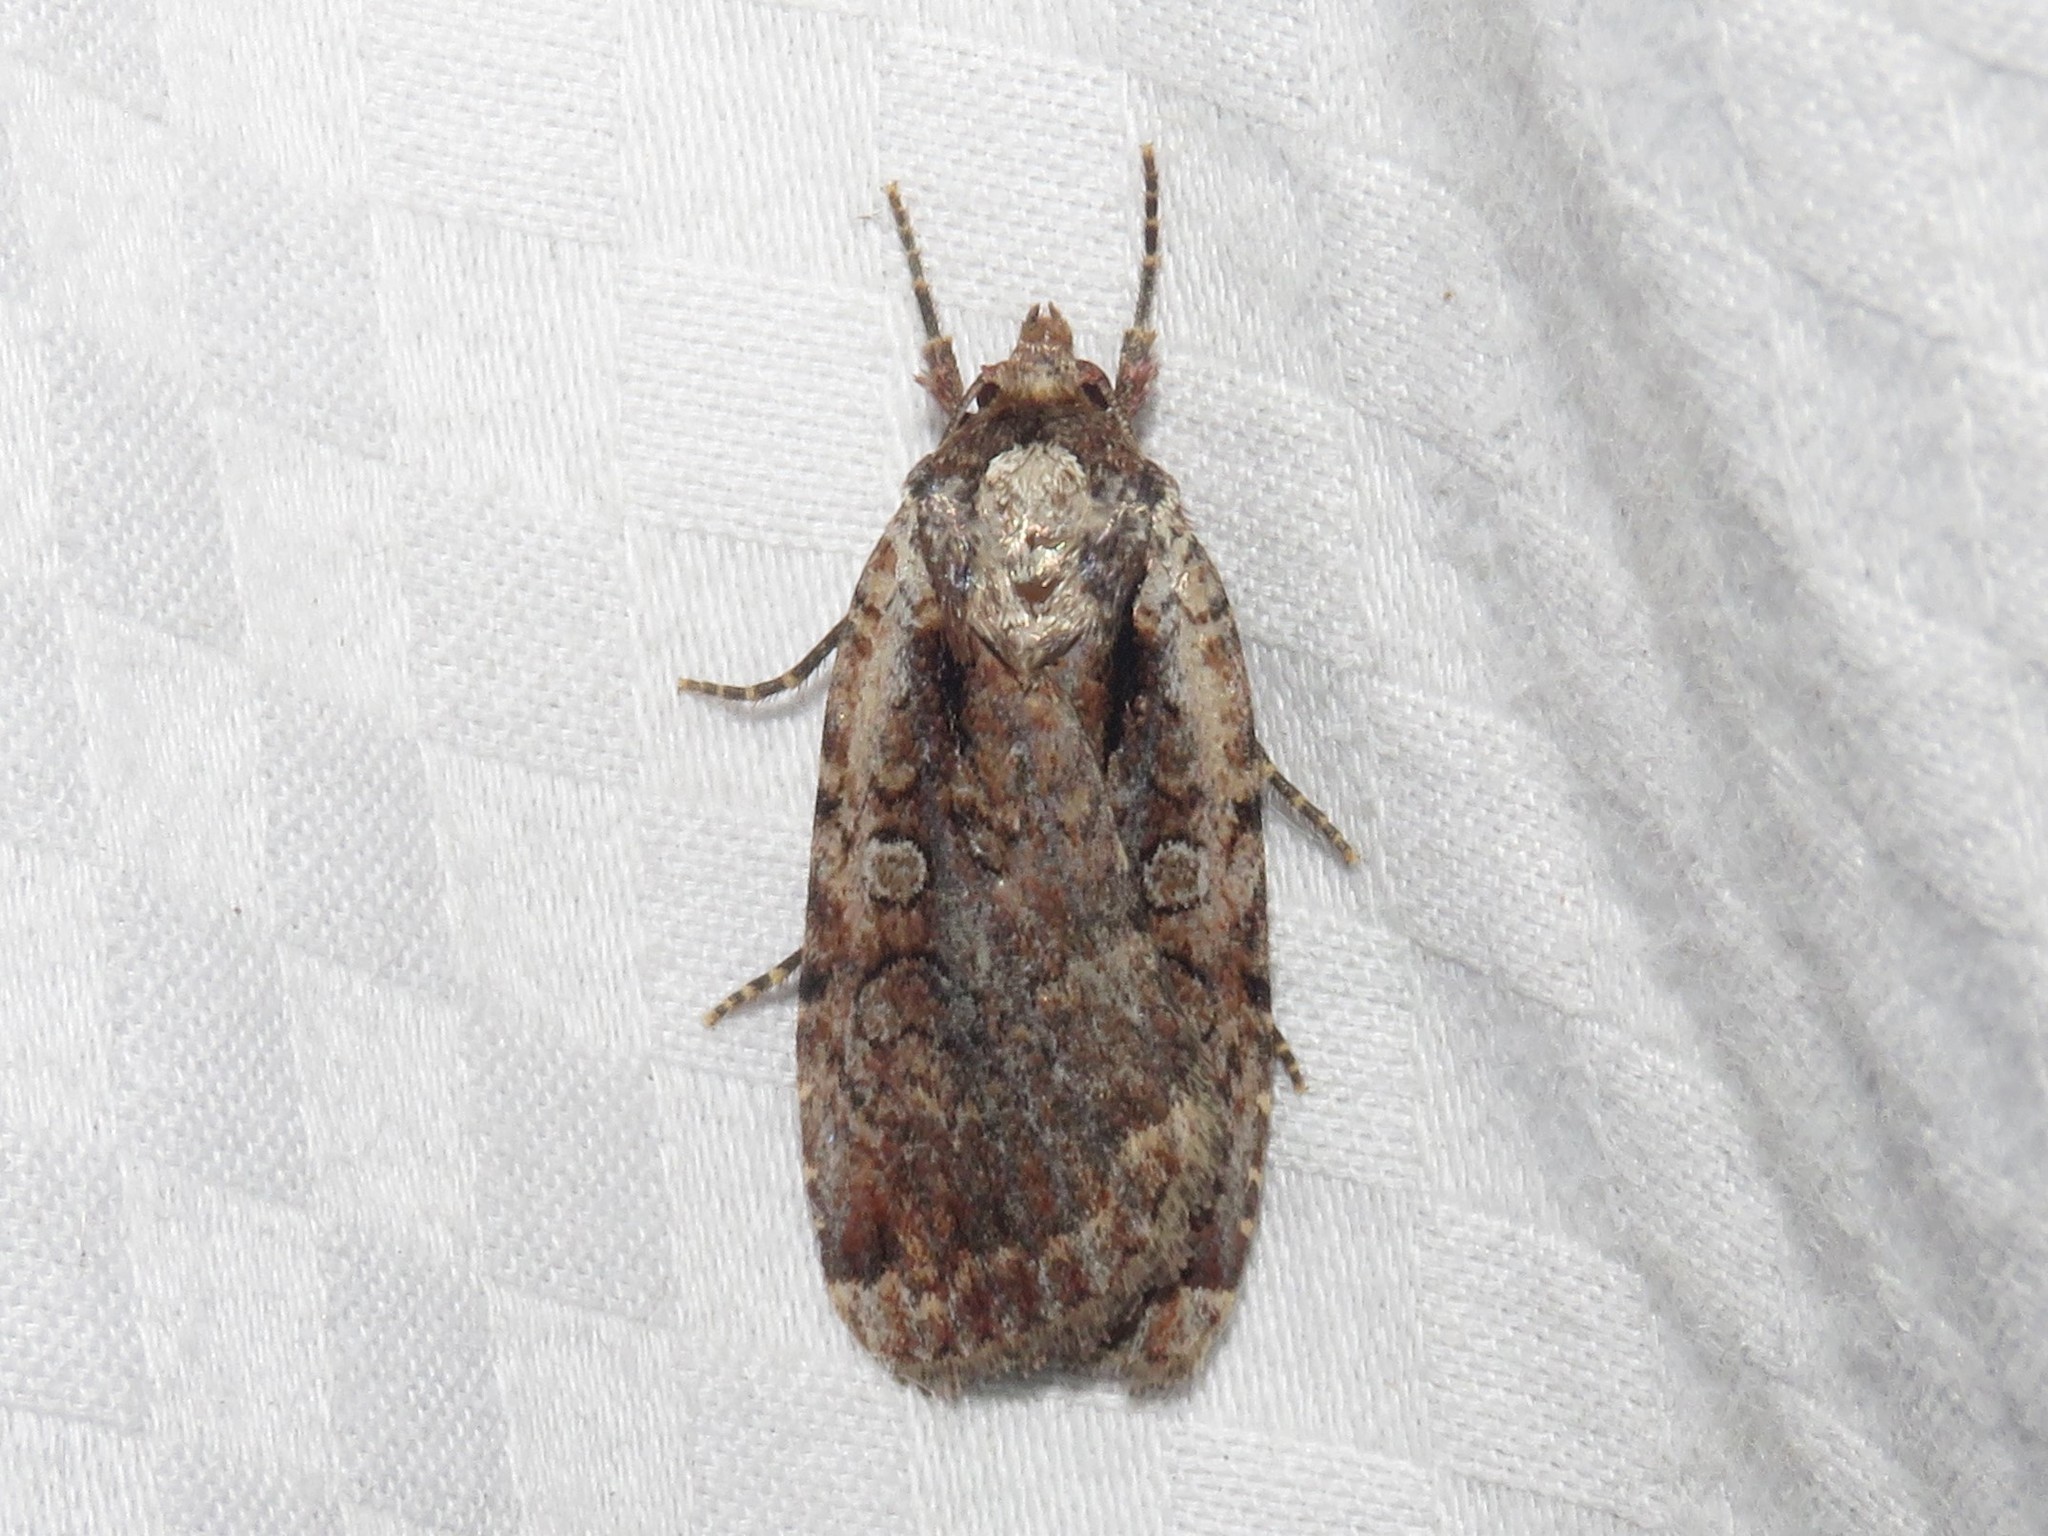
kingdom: Animalia
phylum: Arthropoda
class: Insecta
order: Lepidoptera
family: Noctuidae
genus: Eueretagrotis
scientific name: Eueretagrotis attentus
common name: Attentive dart
